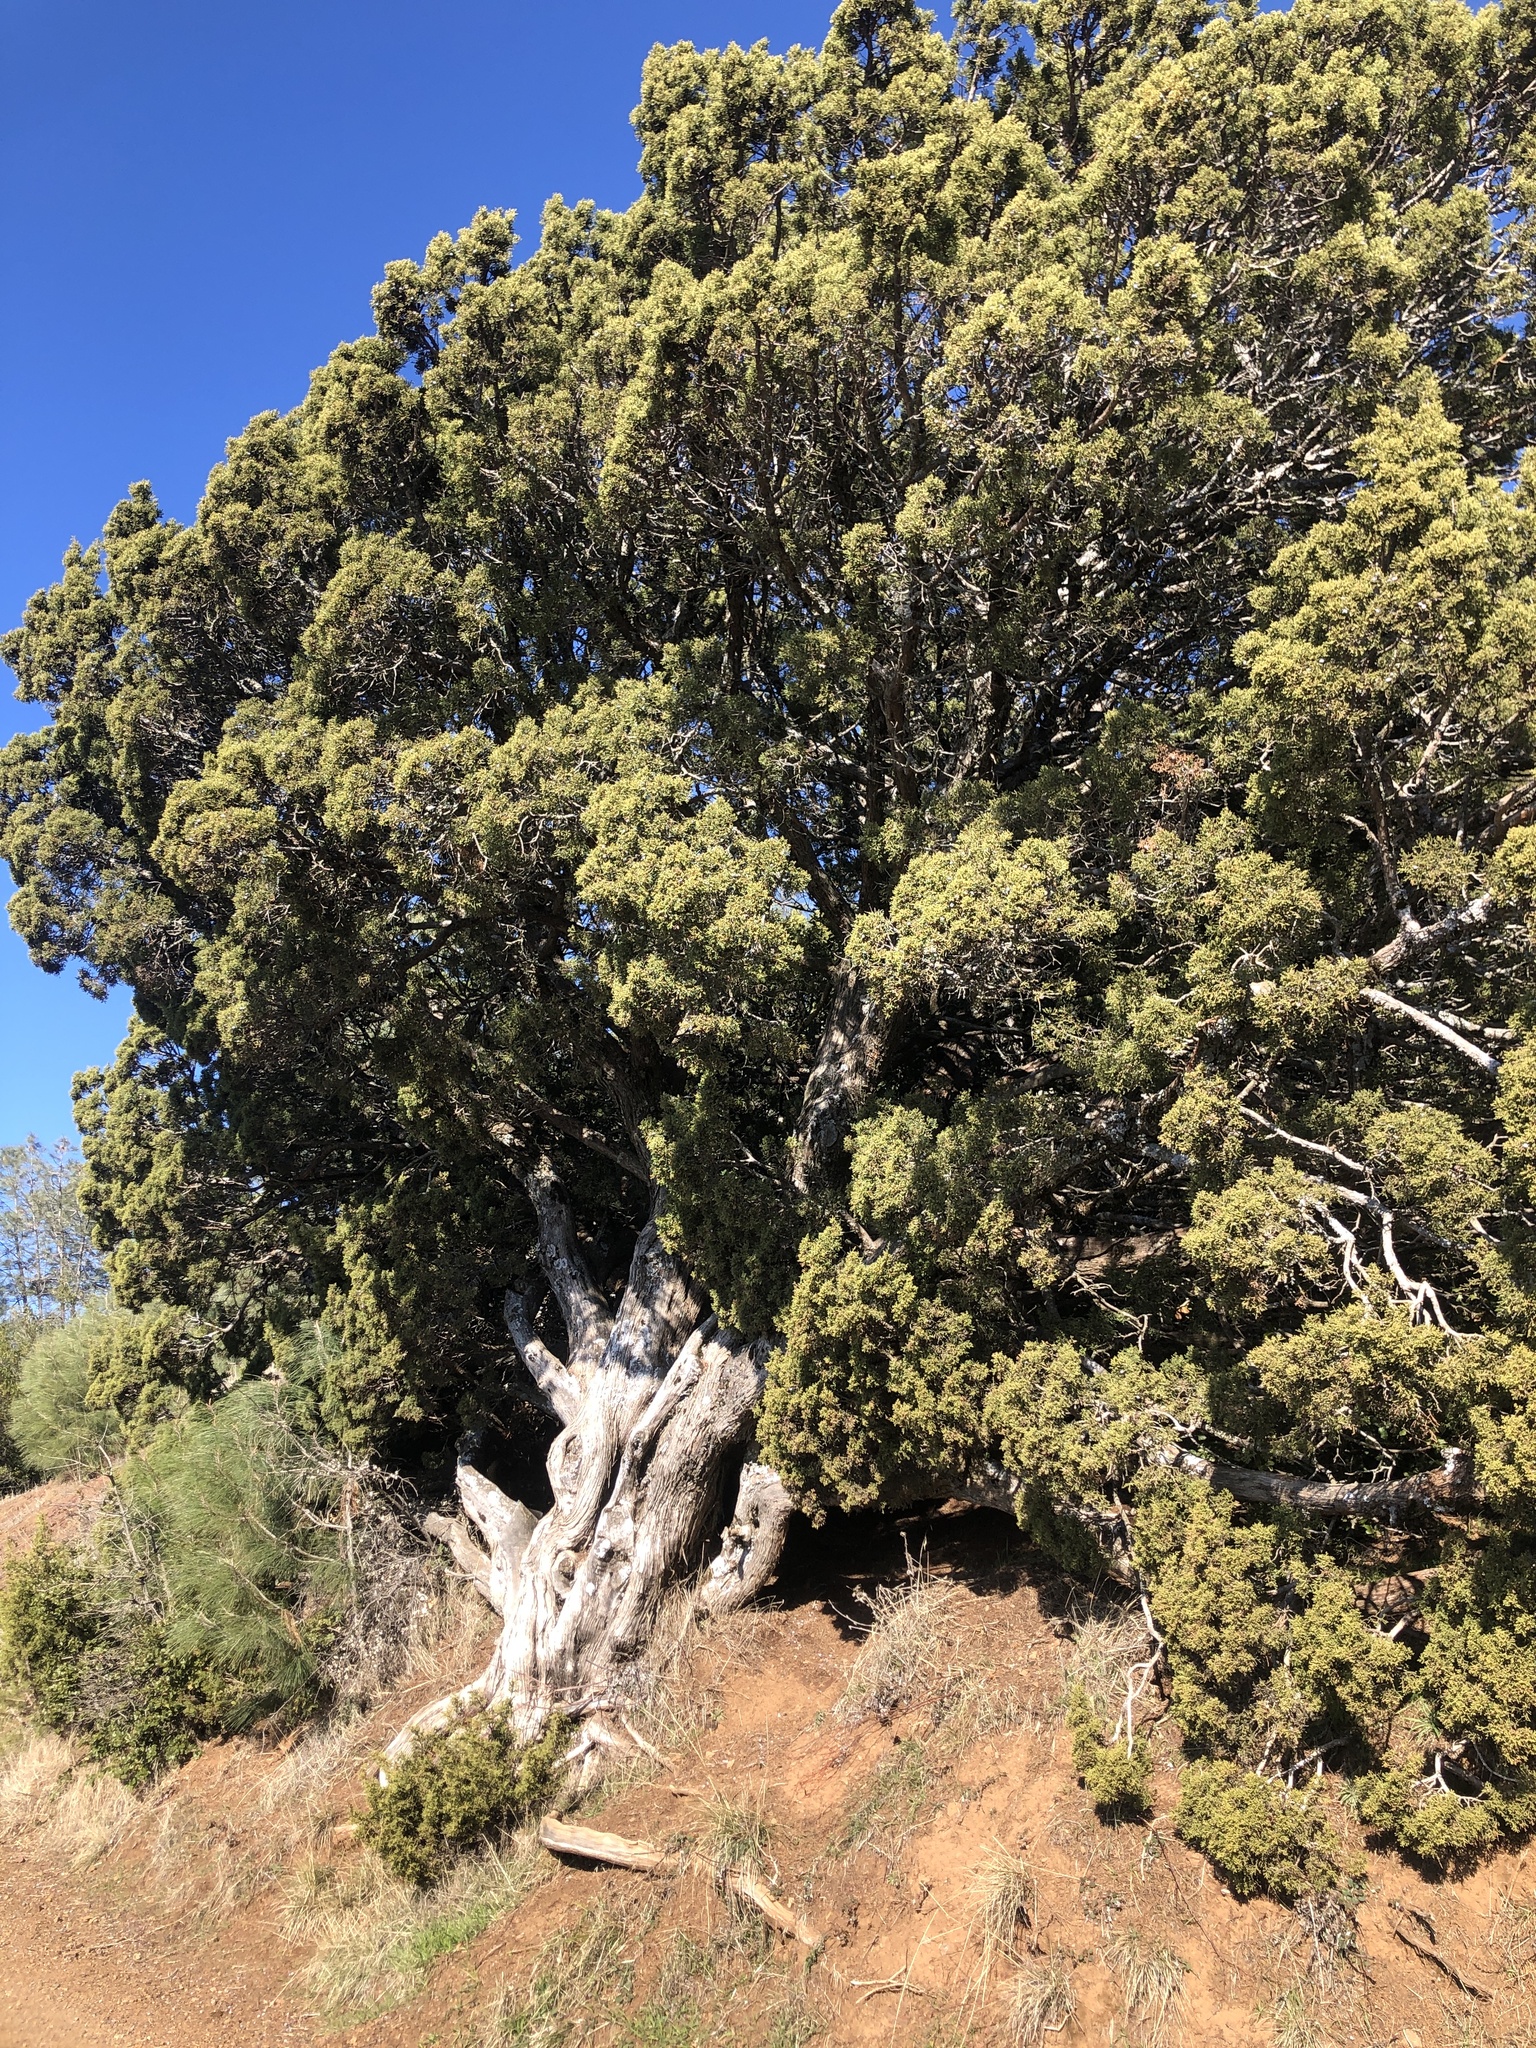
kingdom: Plantae
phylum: Tracheophyta
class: Pinopsida
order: Pinales
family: Cupressaceae
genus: Juniperus
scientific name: Juniperus californica
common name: California juniper
